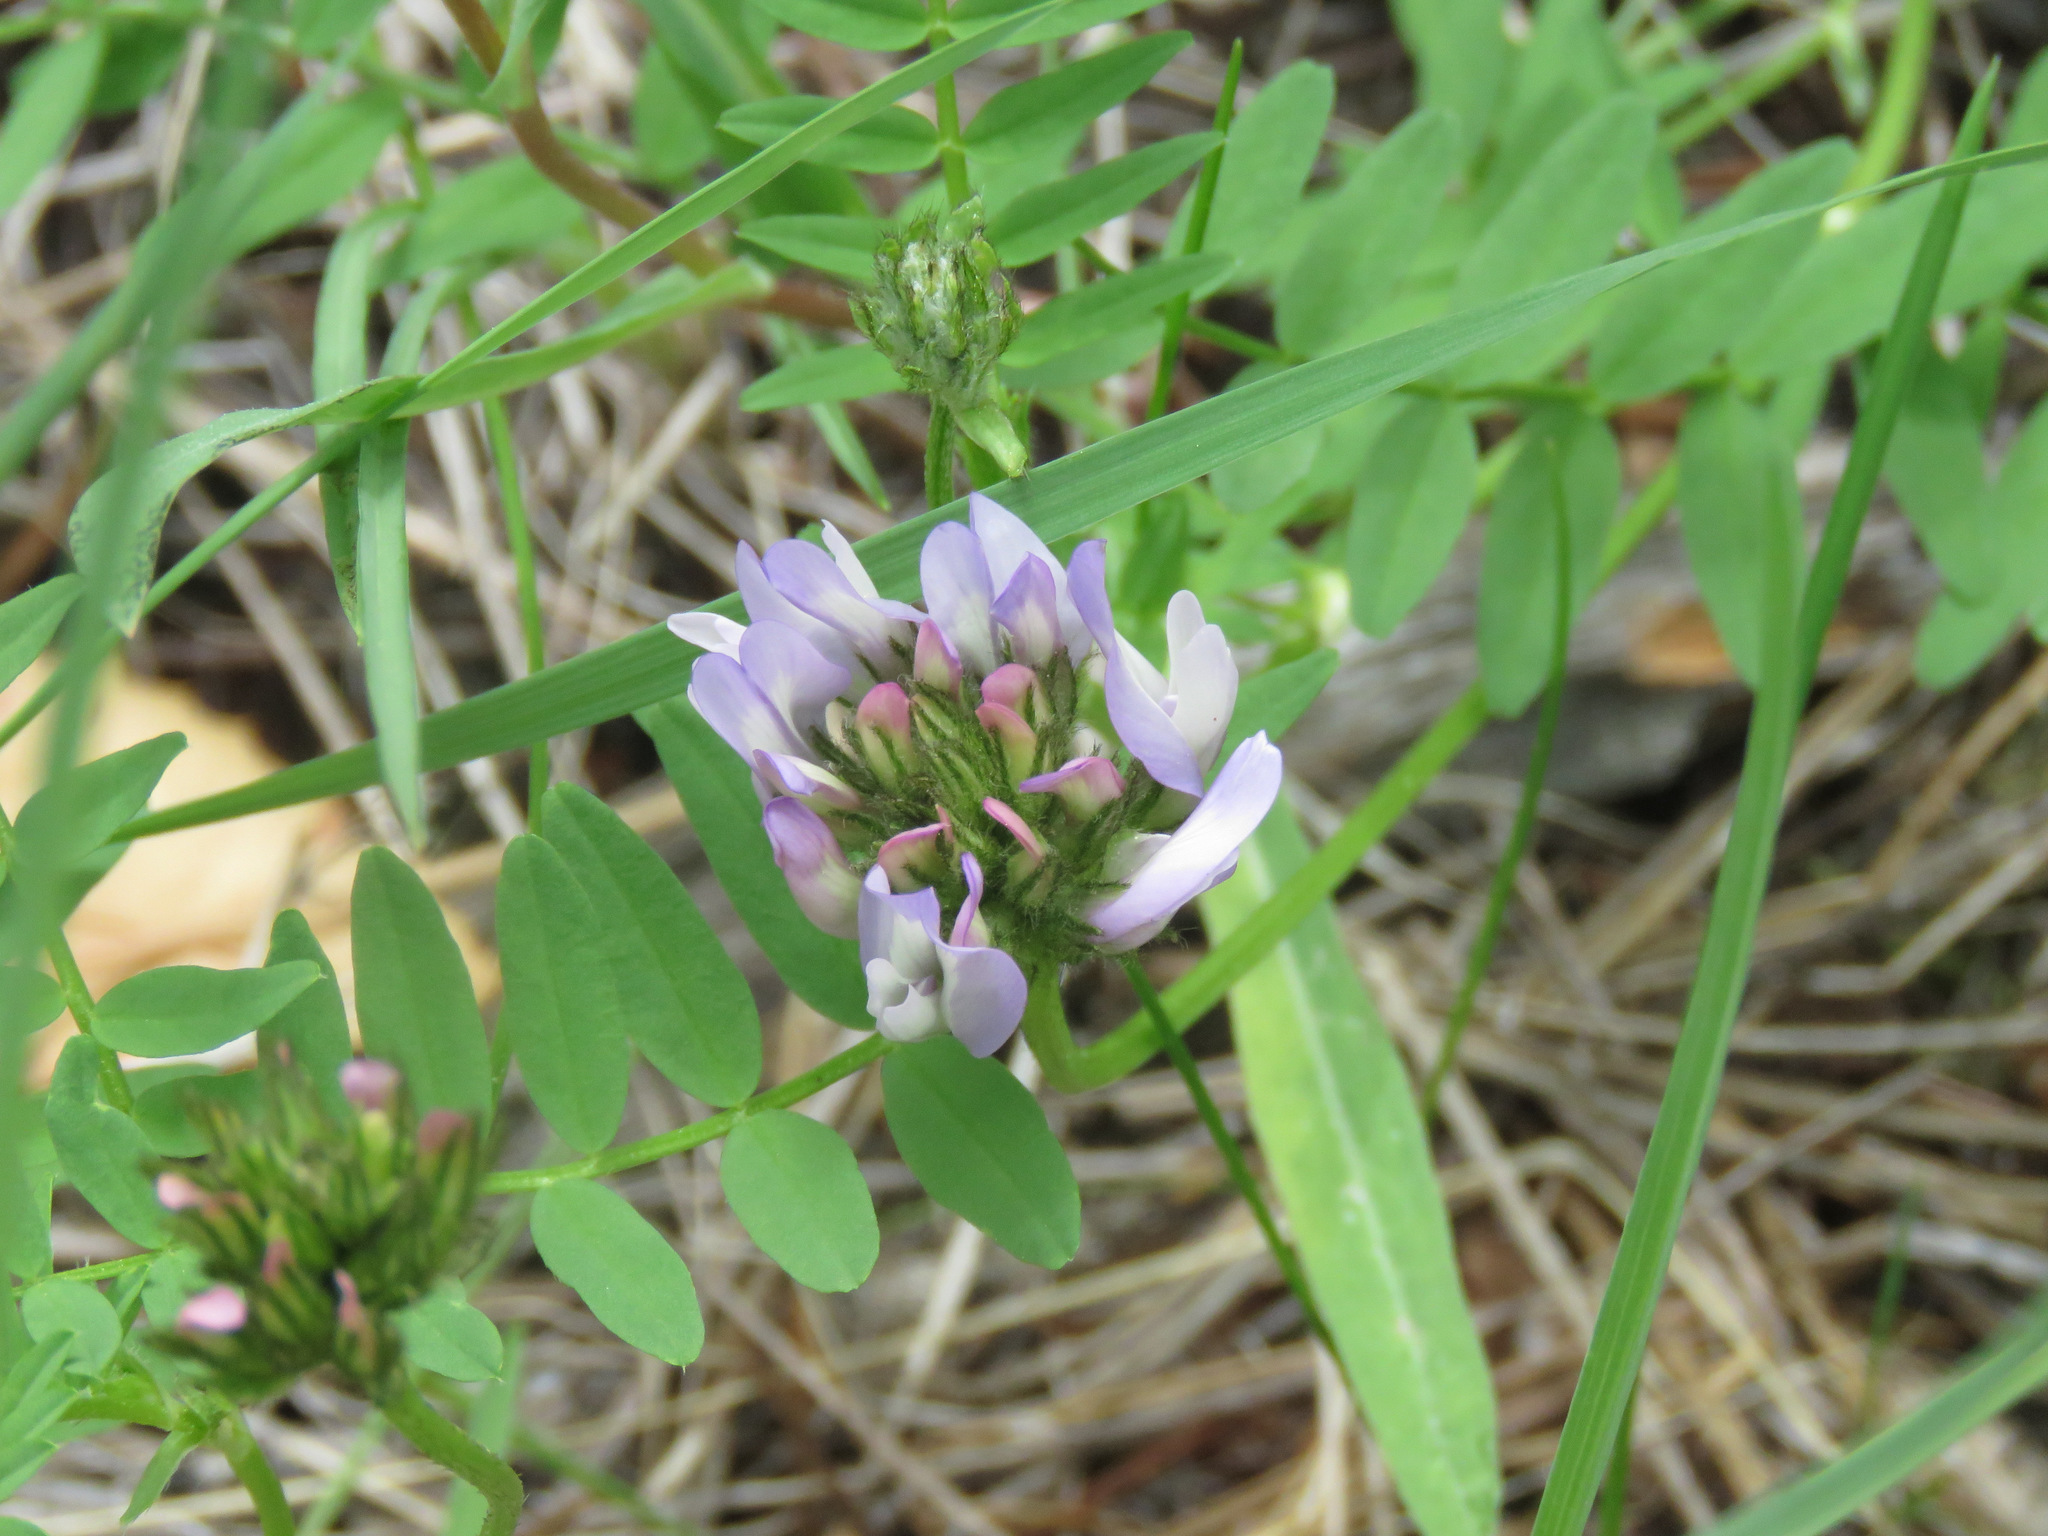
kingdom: Plantae
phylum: Tracheophyta
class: Magnoliopsida
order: Fabales
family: Fabaceae
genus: Astragalus
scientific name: Astragalus agrestis
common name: Field milk-vetch
